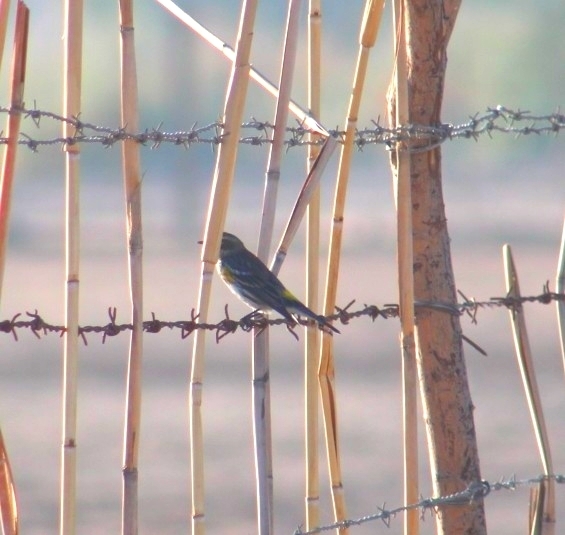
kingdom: Animalia
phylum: Chordata
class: Aves
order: Passeriformes
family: Parulidae
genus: Setophaga
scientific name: Setophaga coronata
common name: Myrtle warbler
